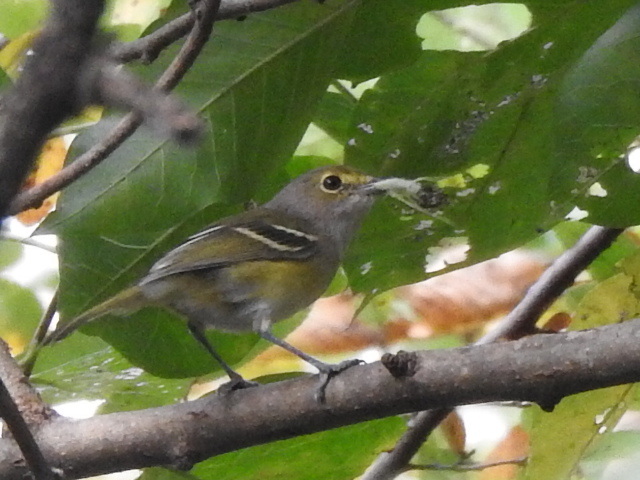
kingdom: Animalia
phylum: Chordata
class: Aves
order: Passeriformes
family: Vireonidae
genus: Vireo
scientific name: Vireo griseus
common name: White-eyed vireo
